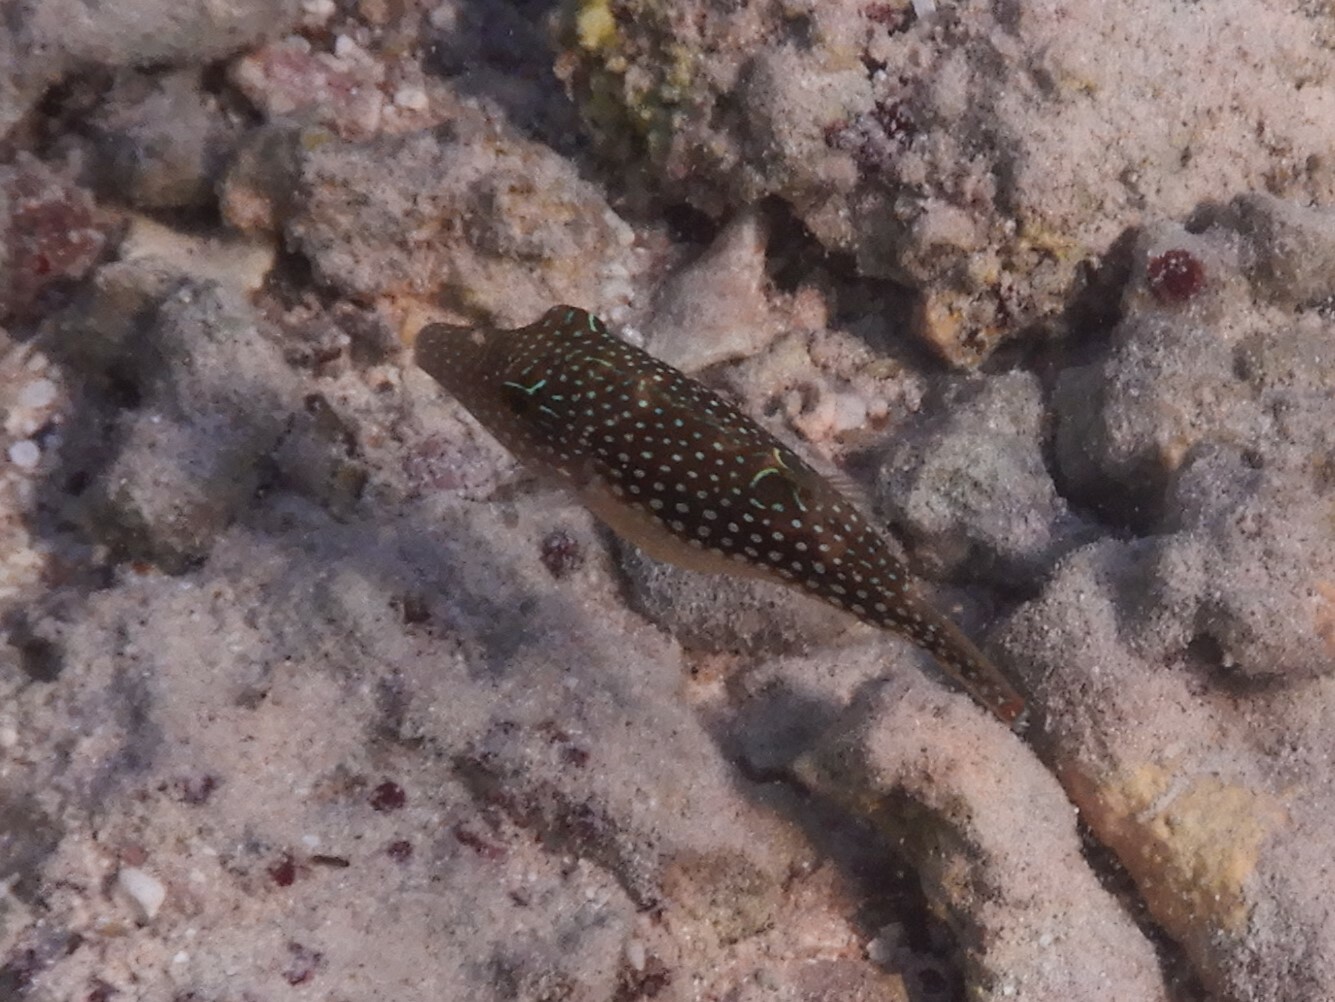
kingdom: Animalia
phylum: Chordata
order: Tetraodontiformes
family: Tetraodontidae
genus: Canthigaster
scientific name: Canthigaster margaritata
